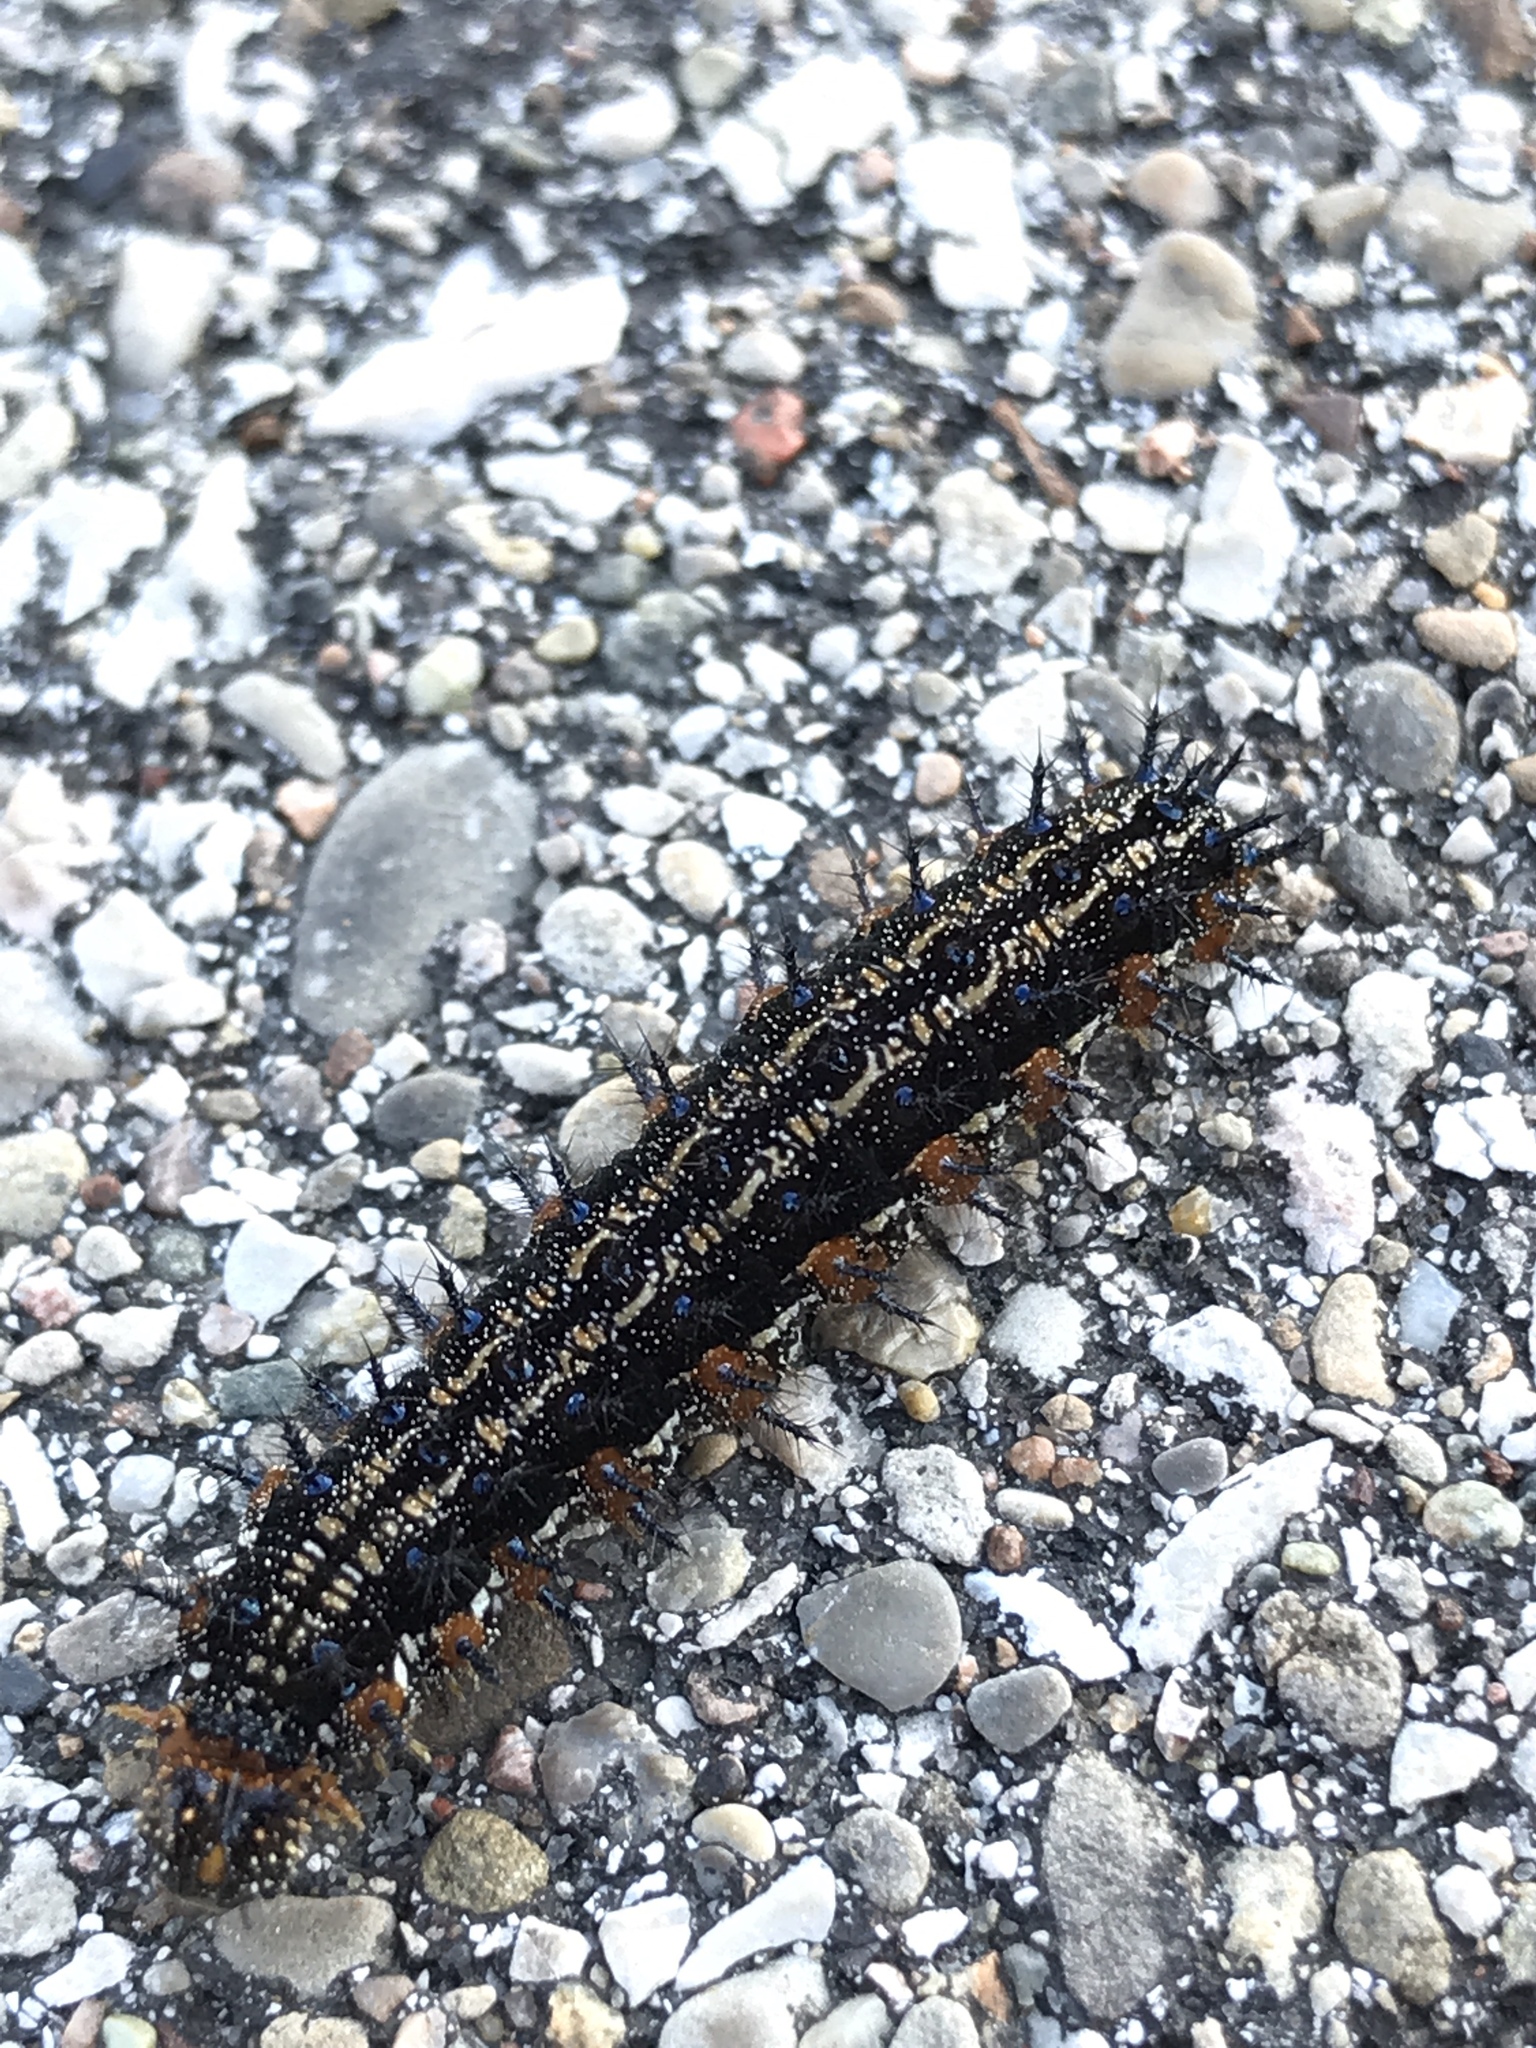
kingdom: Animalia
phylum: Arthropoda
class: Insecta
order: Lepidoptera
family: Nymphalidae
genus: Junonia
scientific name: Junonia coenia
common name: Common buckeye
